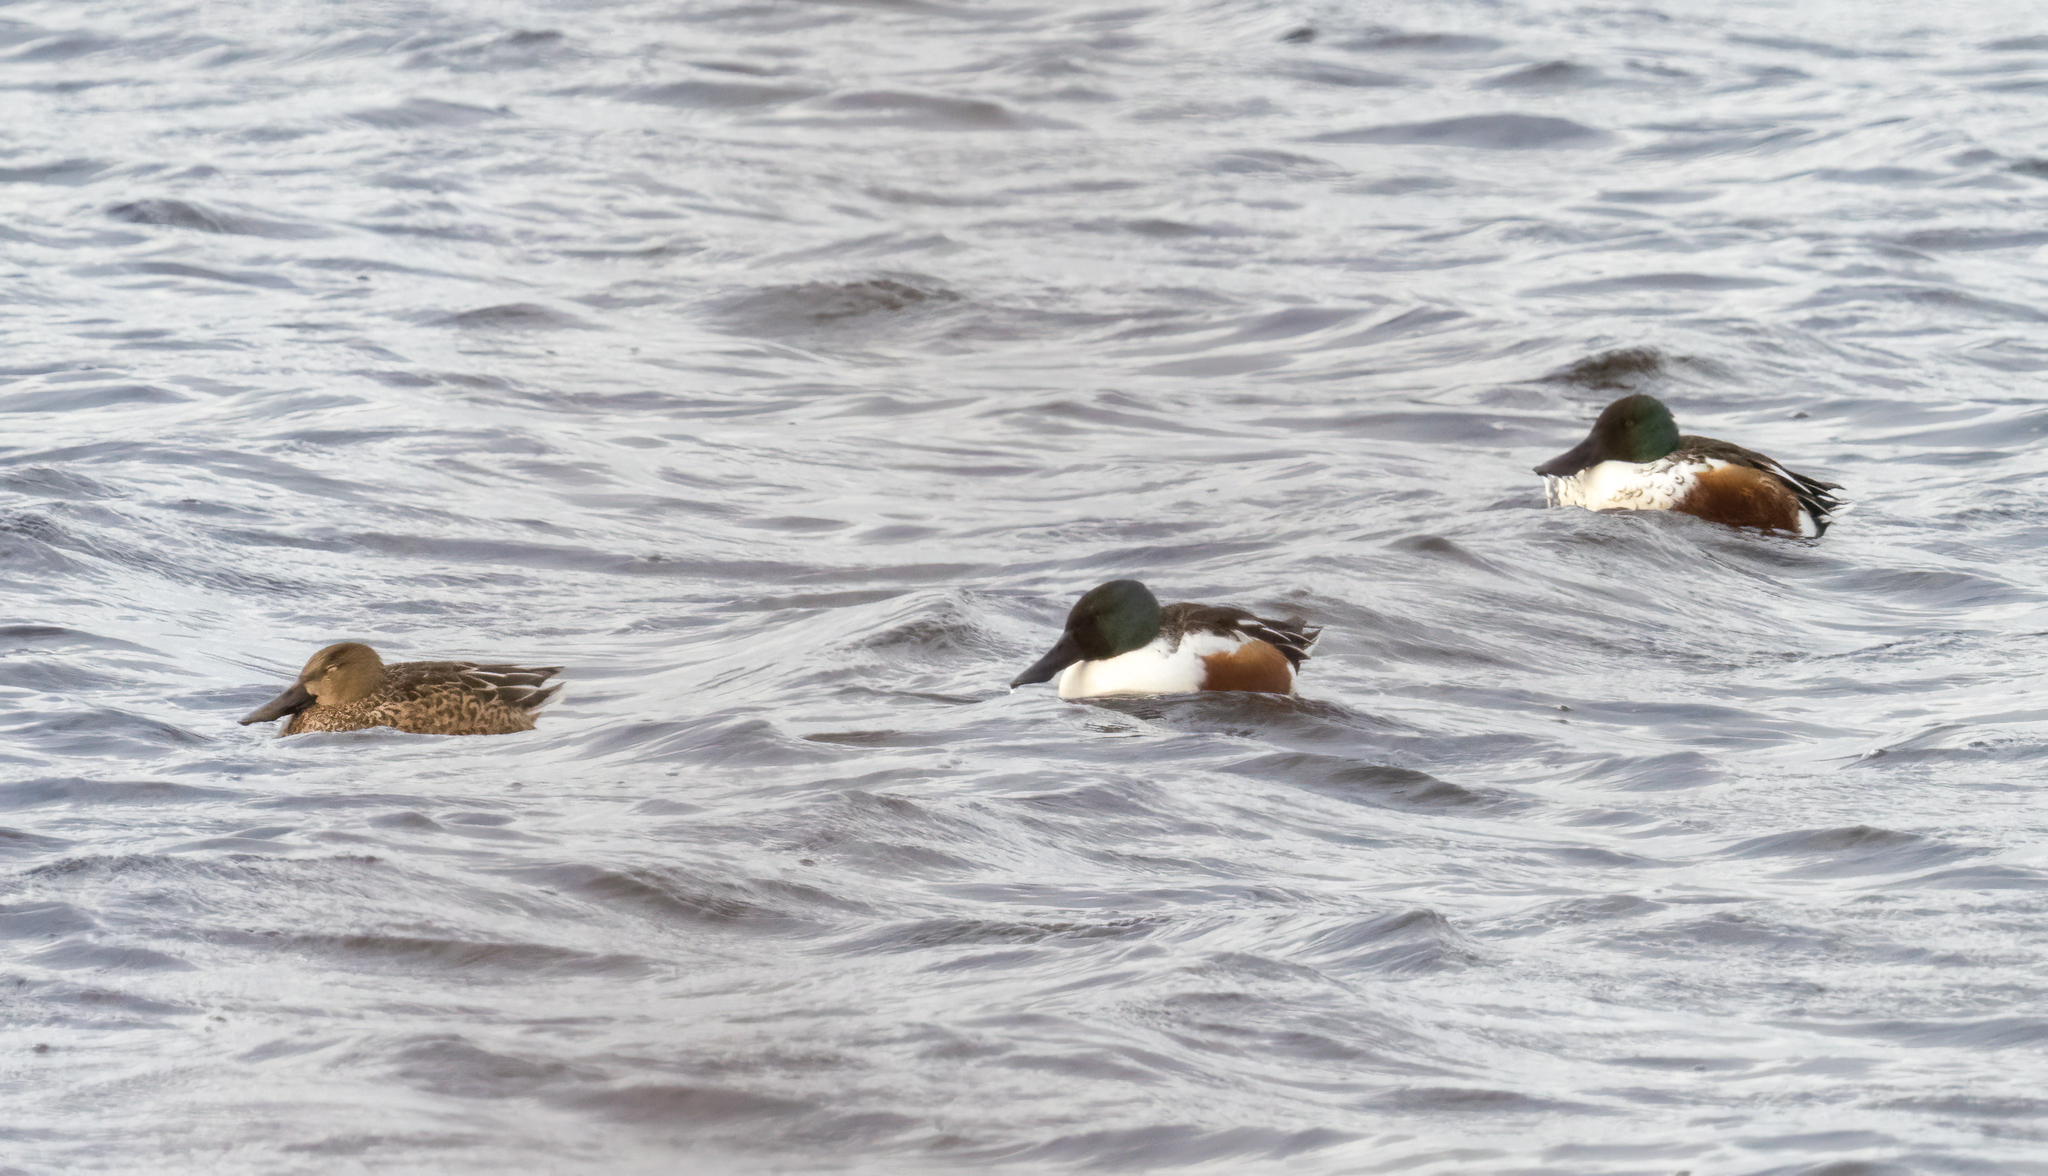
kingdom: Animalia
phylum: Chordata
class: Aves
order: Anseriformes
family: Anatidae
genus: Spatula
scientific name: Spatula clypeata
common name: Northern shoveler
